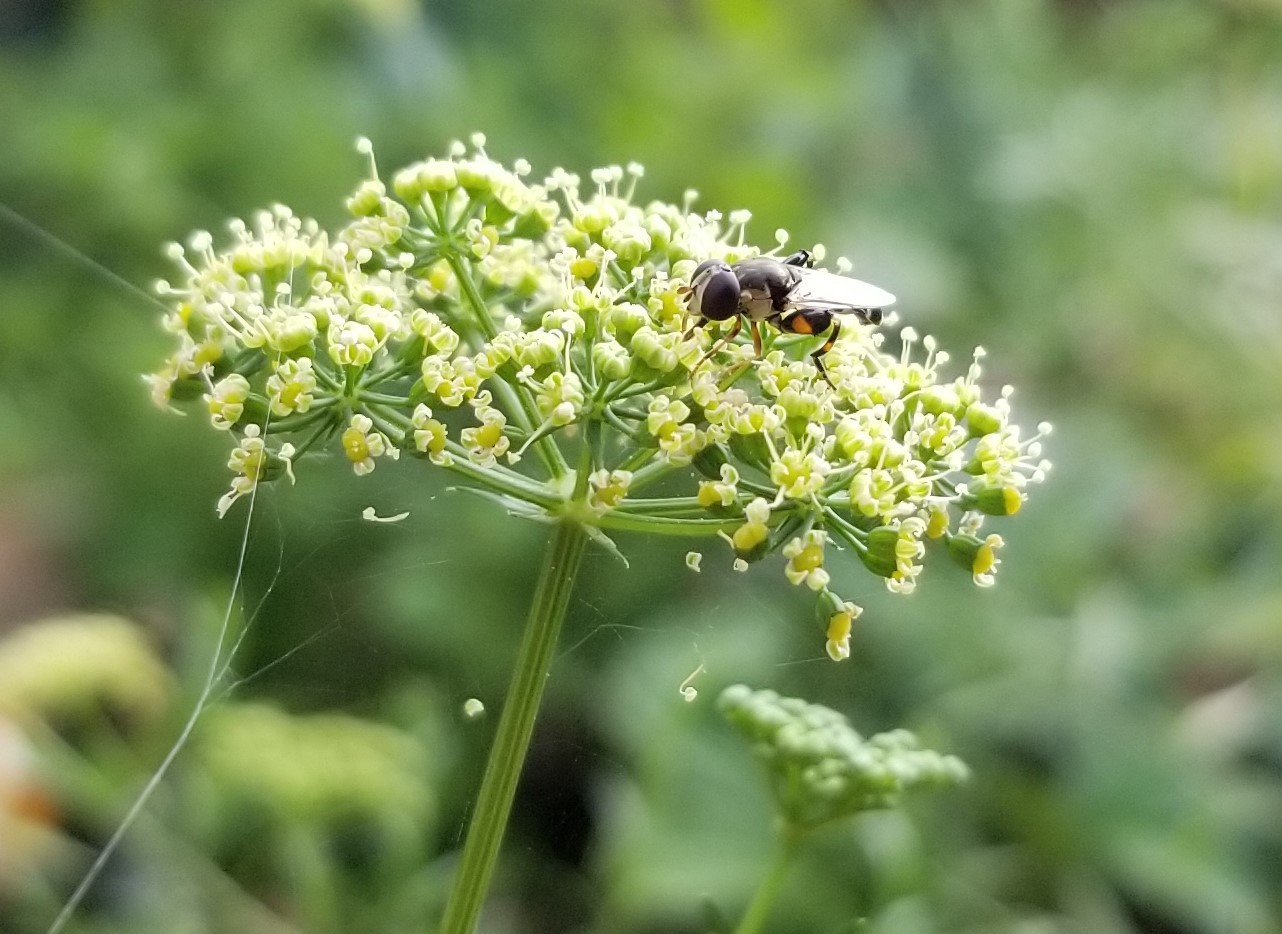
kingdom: Animalia
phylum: Arthropoda
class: Insecta
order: Diptera
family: Syrphidae
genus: Syritta
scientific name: Syritta pipiens
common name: Hover fly
